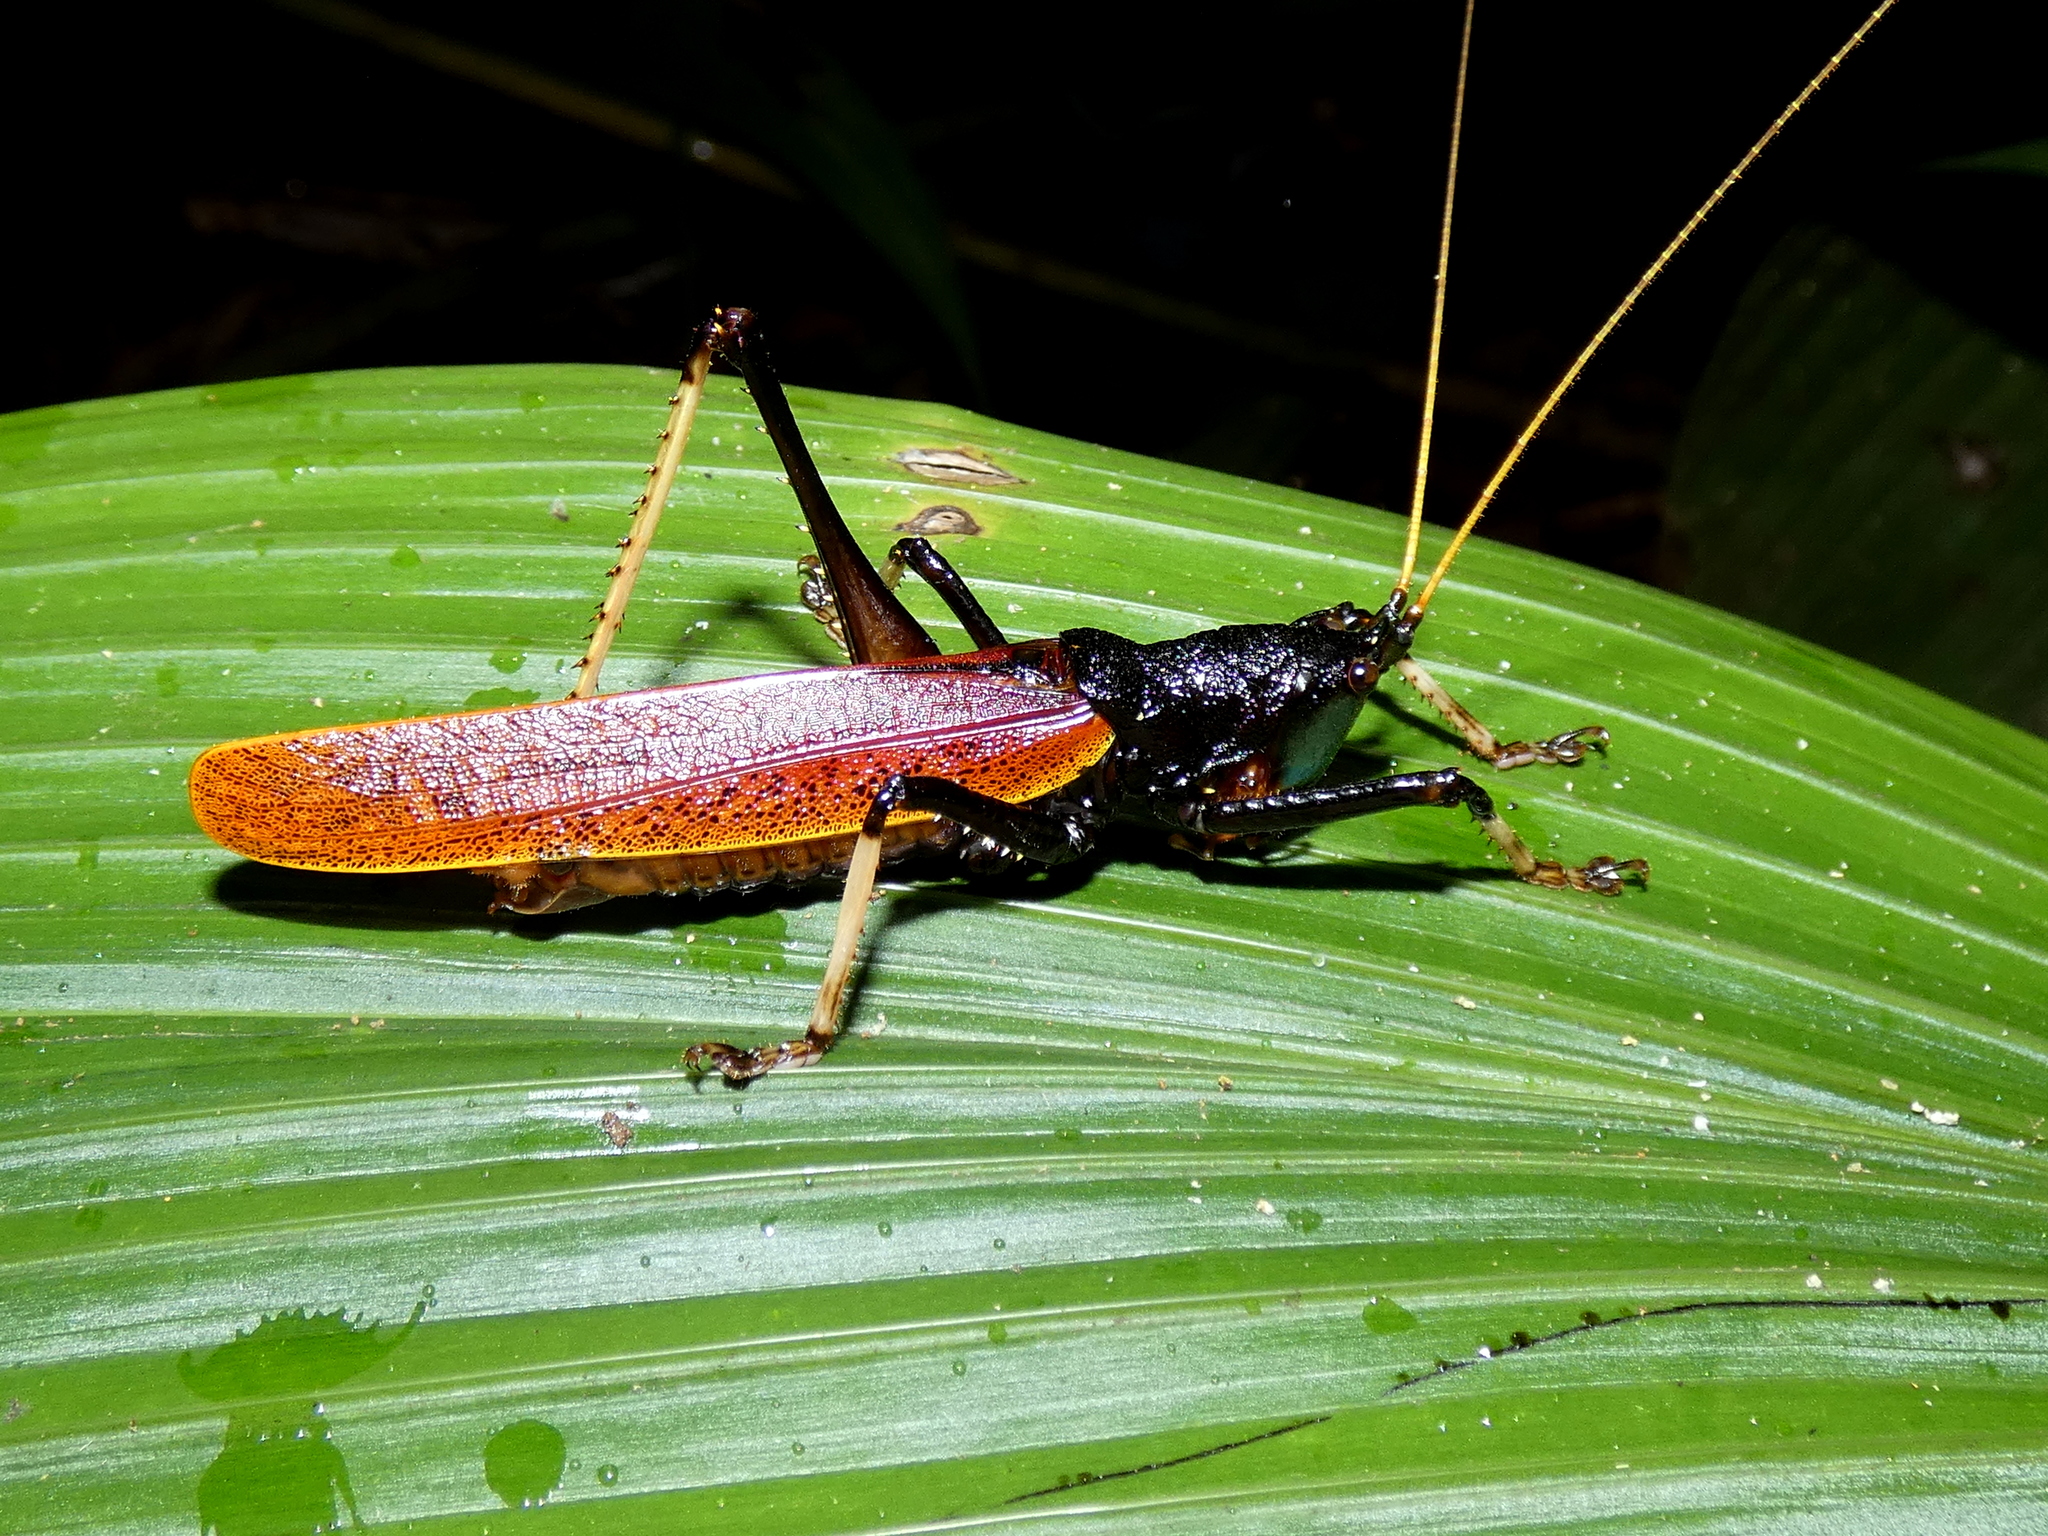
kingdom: Animalia
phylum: Arthropoda
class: Insecta
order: Orthoptera
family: Tettigoniidae
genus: Eumacroxiphus
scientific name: Eumacroxiphus diabolicus
